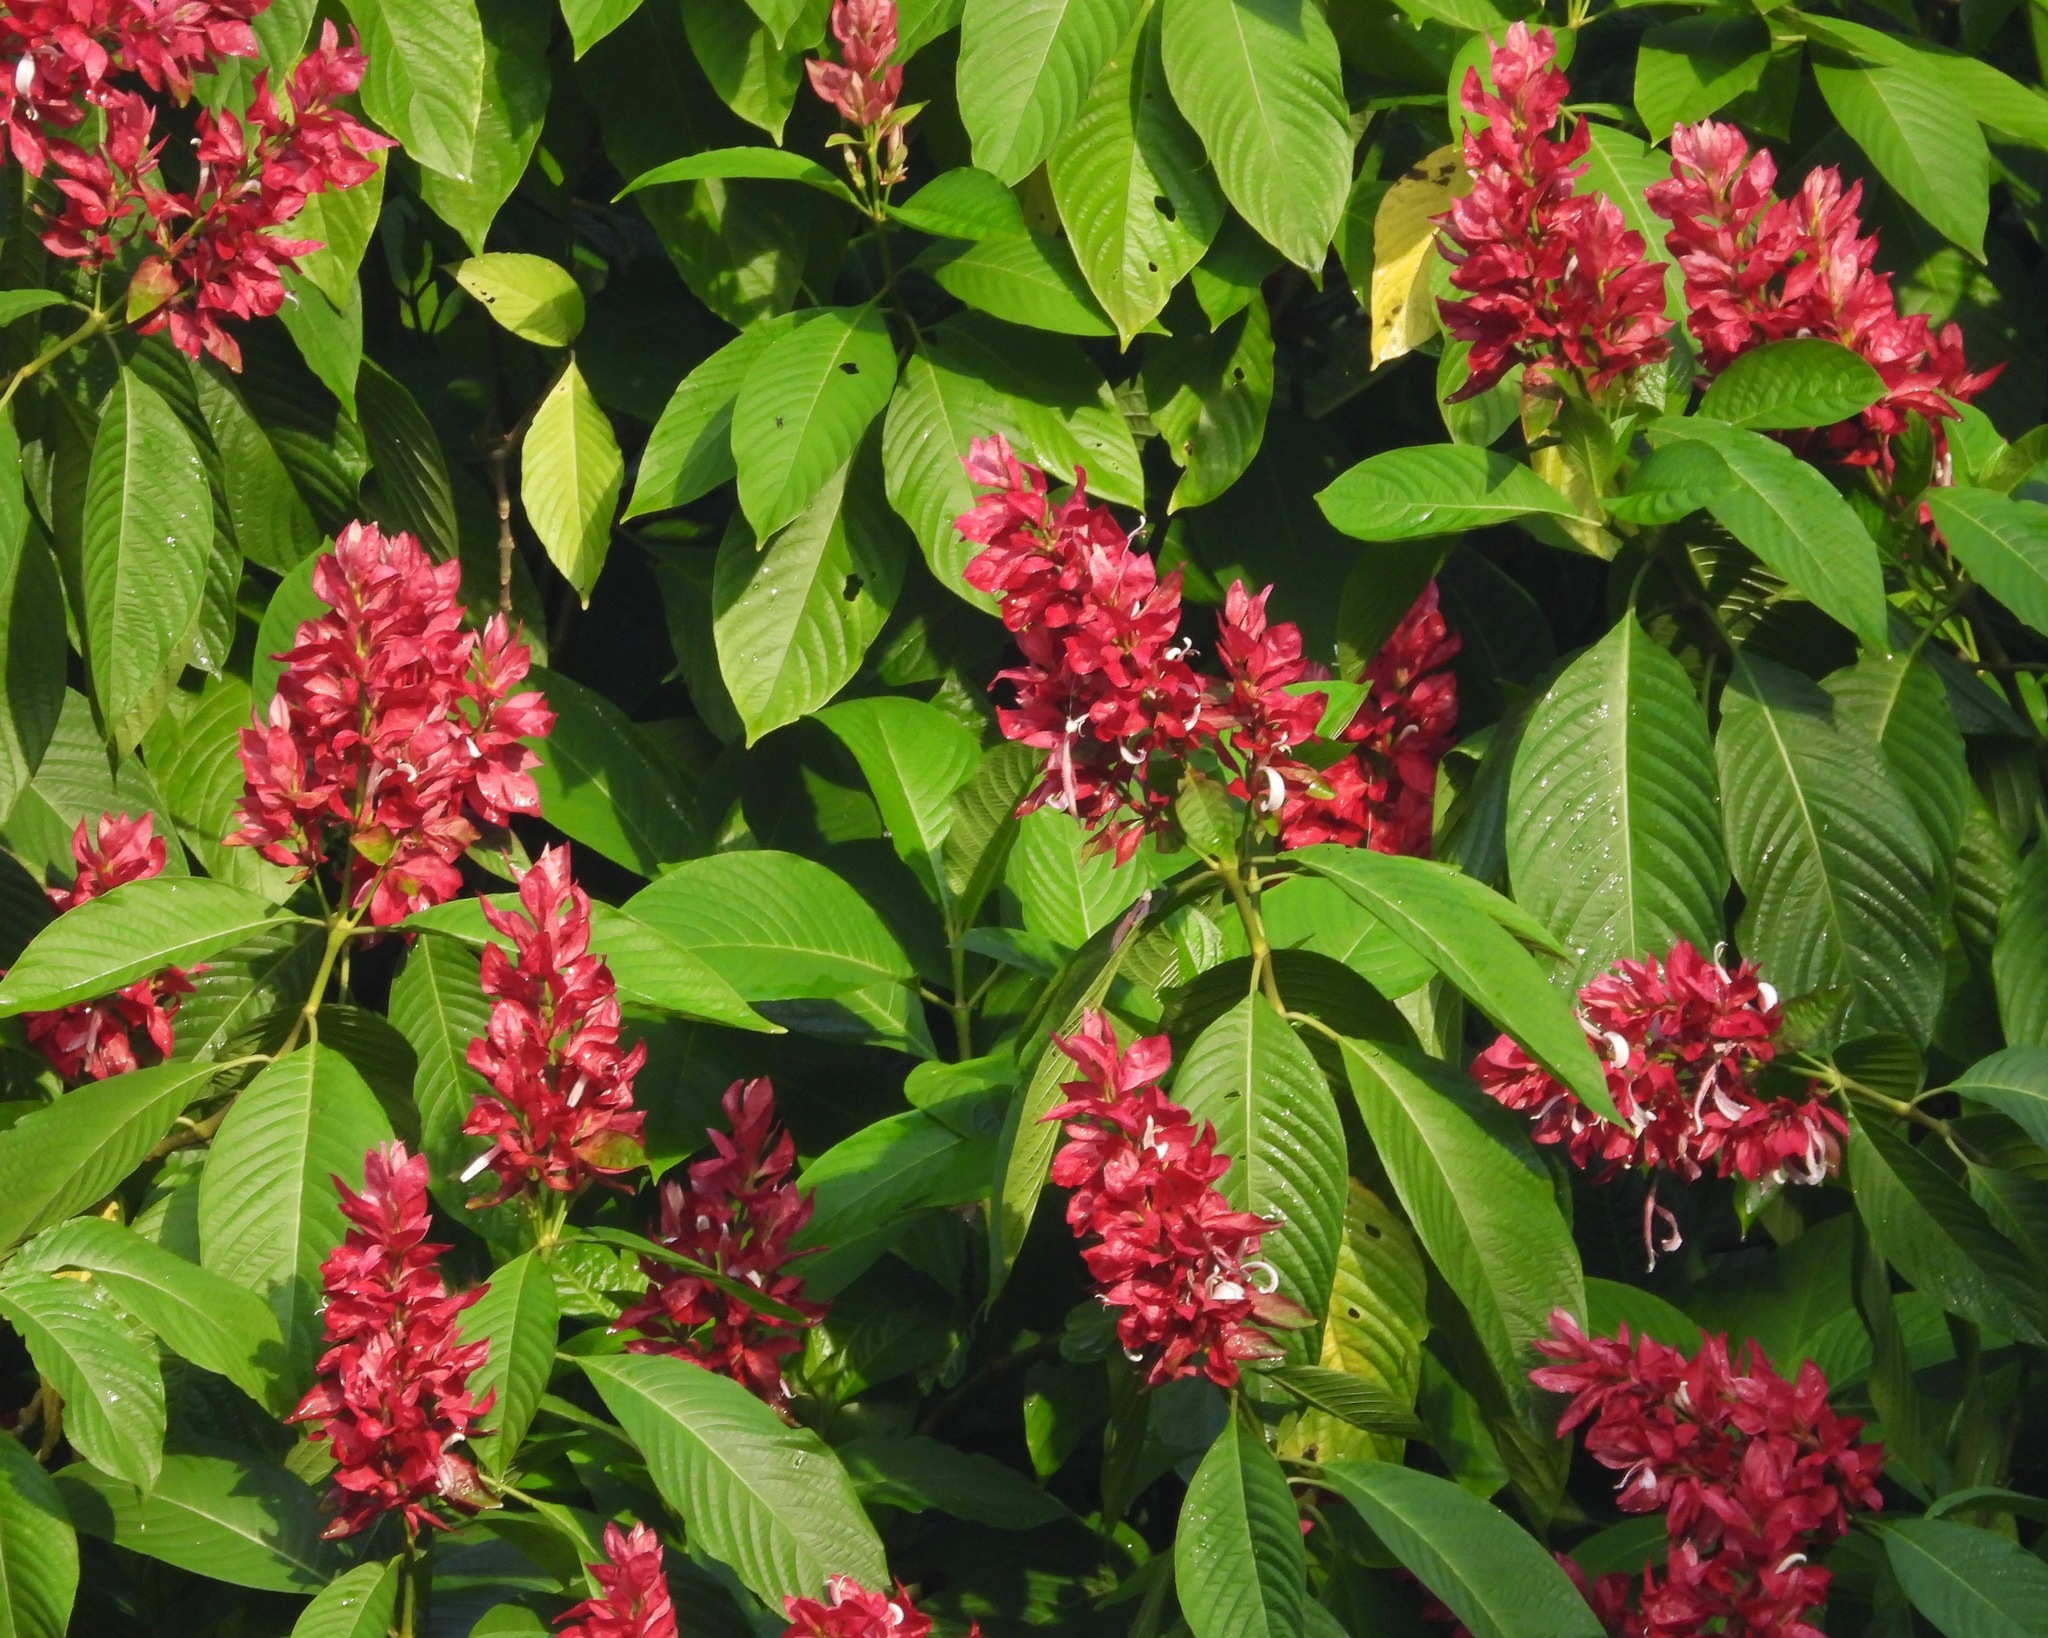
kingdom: Plantae
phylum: Tracheophyta
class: Magnoliopsida
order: Lamiales
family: Acanthaceae
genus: Megaskepasma
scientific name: Megaskepasma erythrochlamys
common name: Brazilian red-cloak
